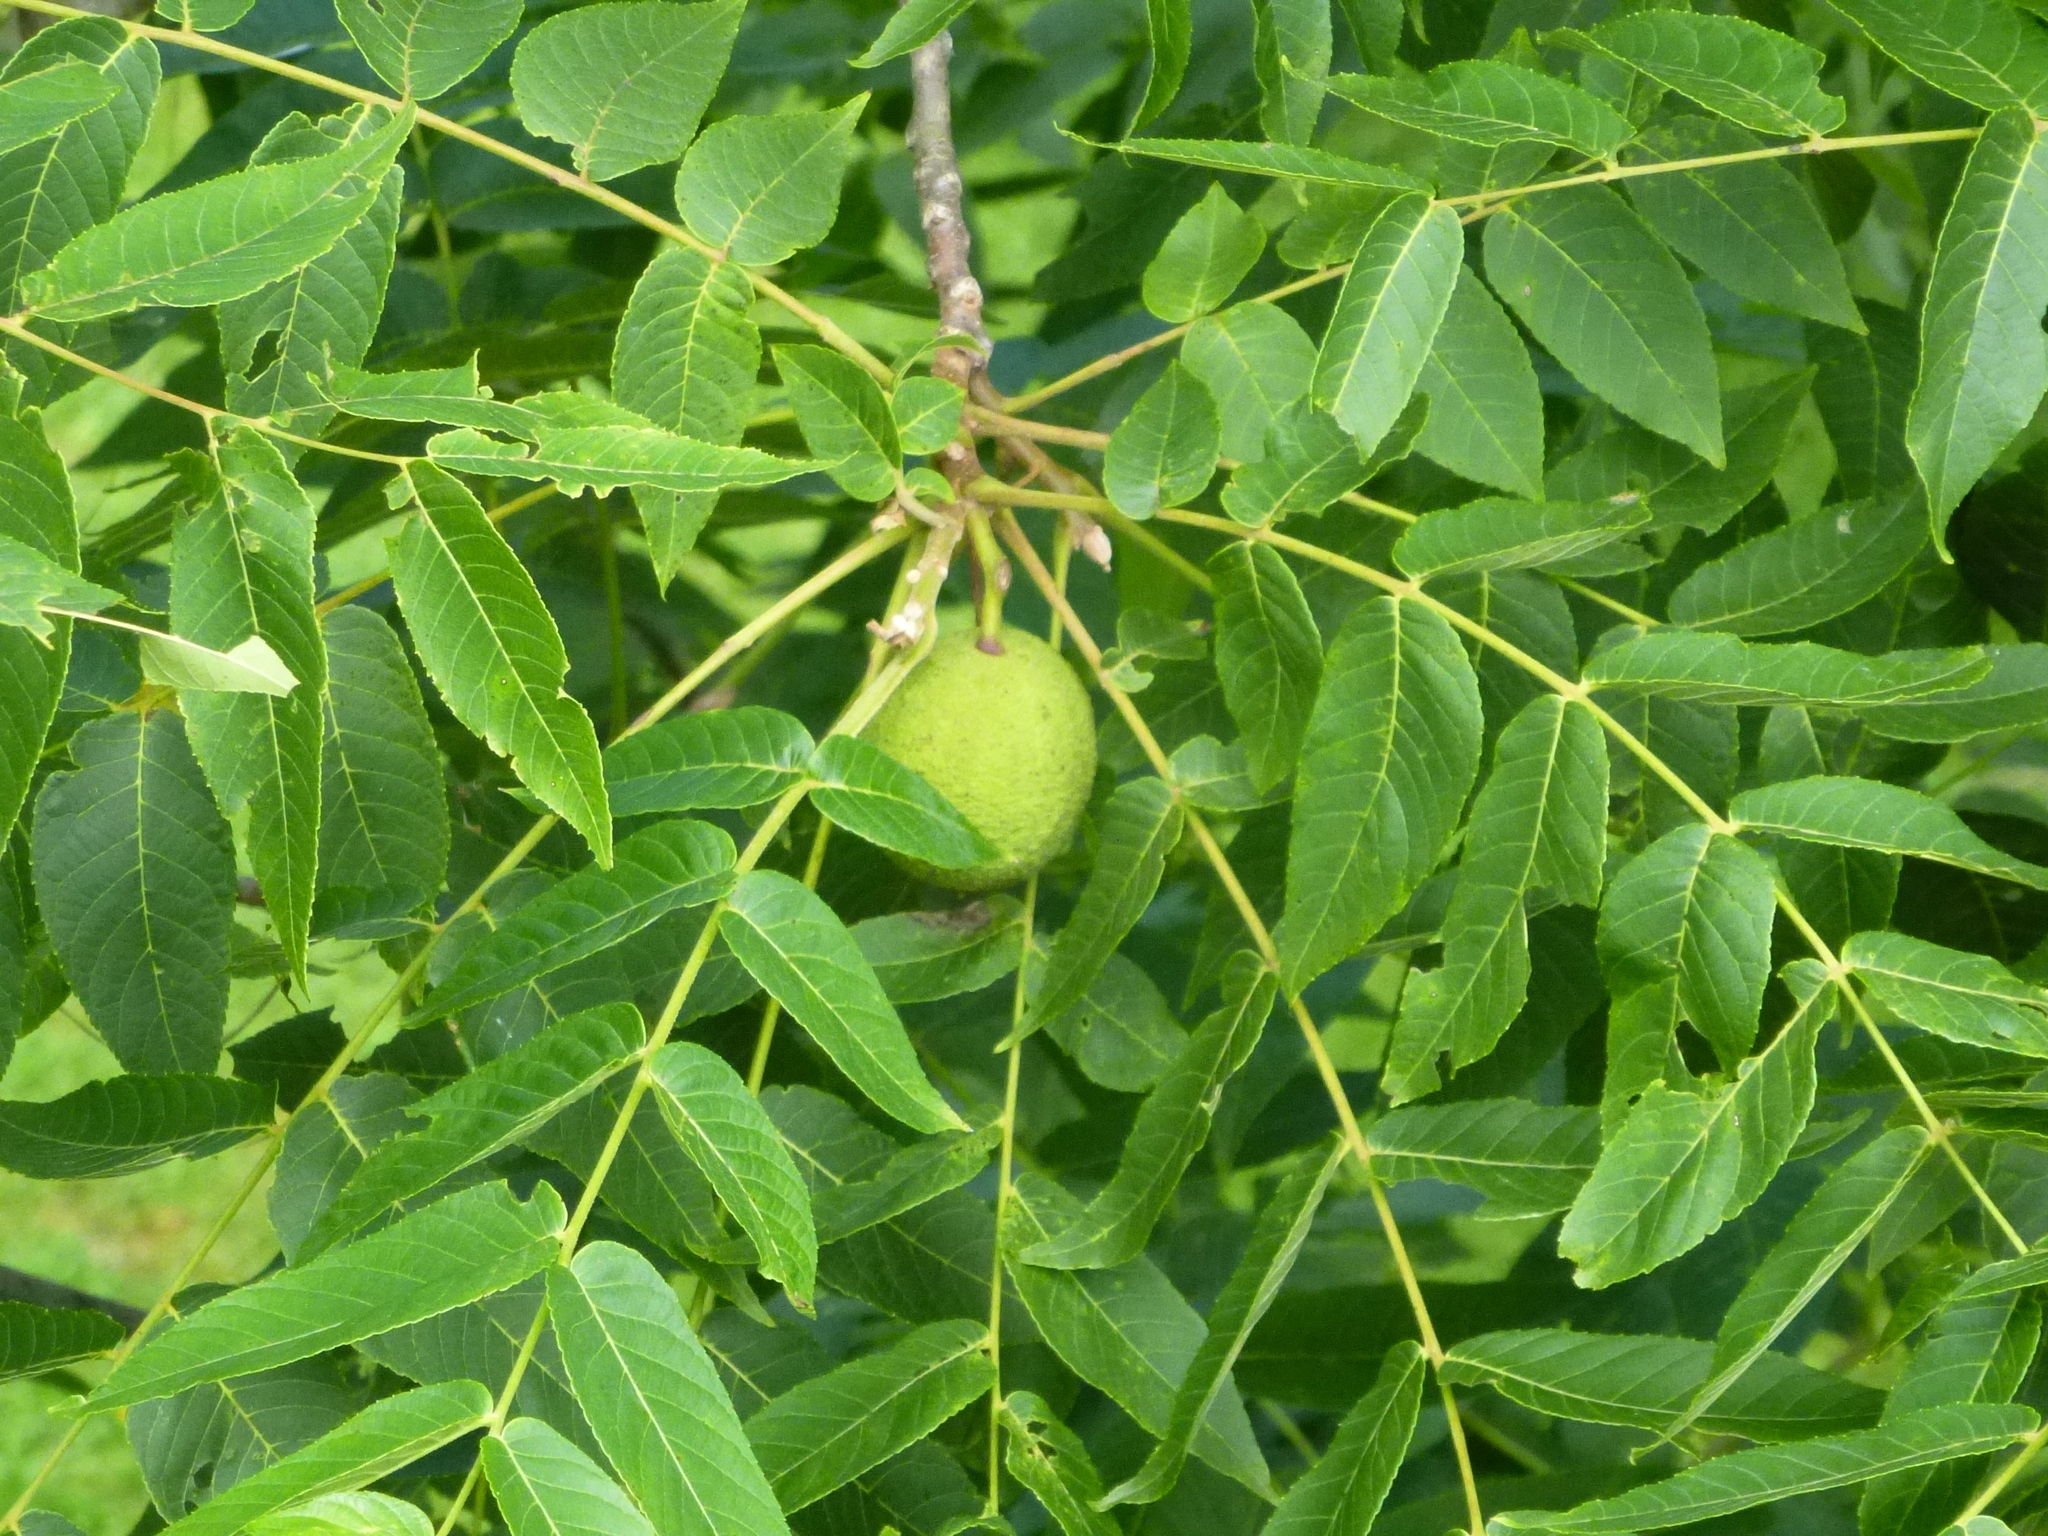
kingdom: Plantae
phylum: Tracheophyta
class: Magnoliopsida
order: Fagales
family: Juglandaceae
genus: Juglans
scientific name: Juglans nigra
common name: Black walnut
